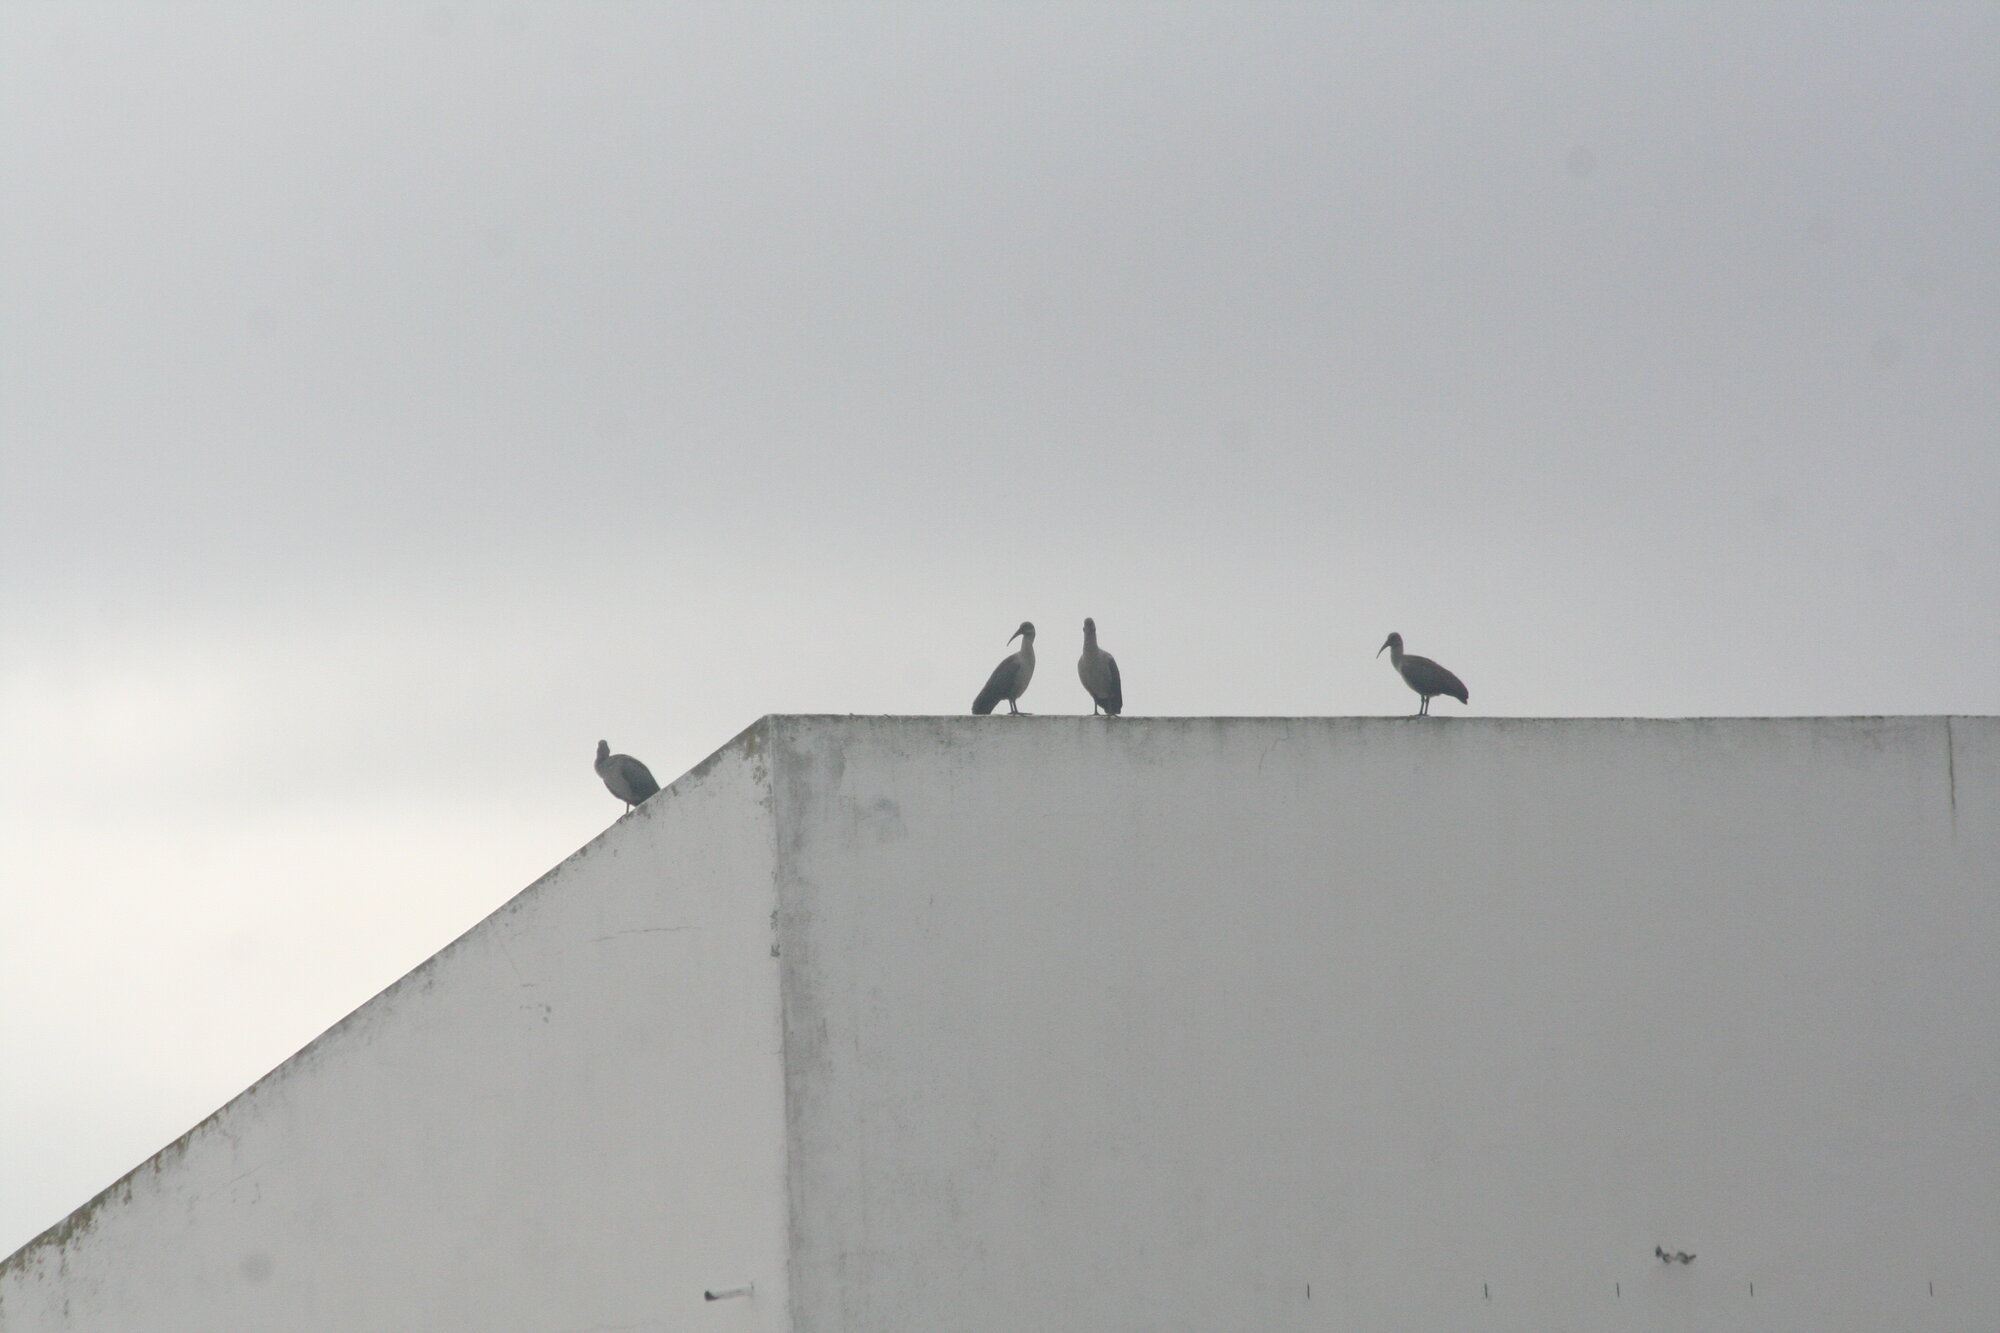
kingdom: Animalia
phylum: Chordata
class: Aves
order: Pelecaniformes
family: Threskiornithidae
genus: Bostrychia
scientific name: Bostrychia hagedash
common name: Hadada ibis
